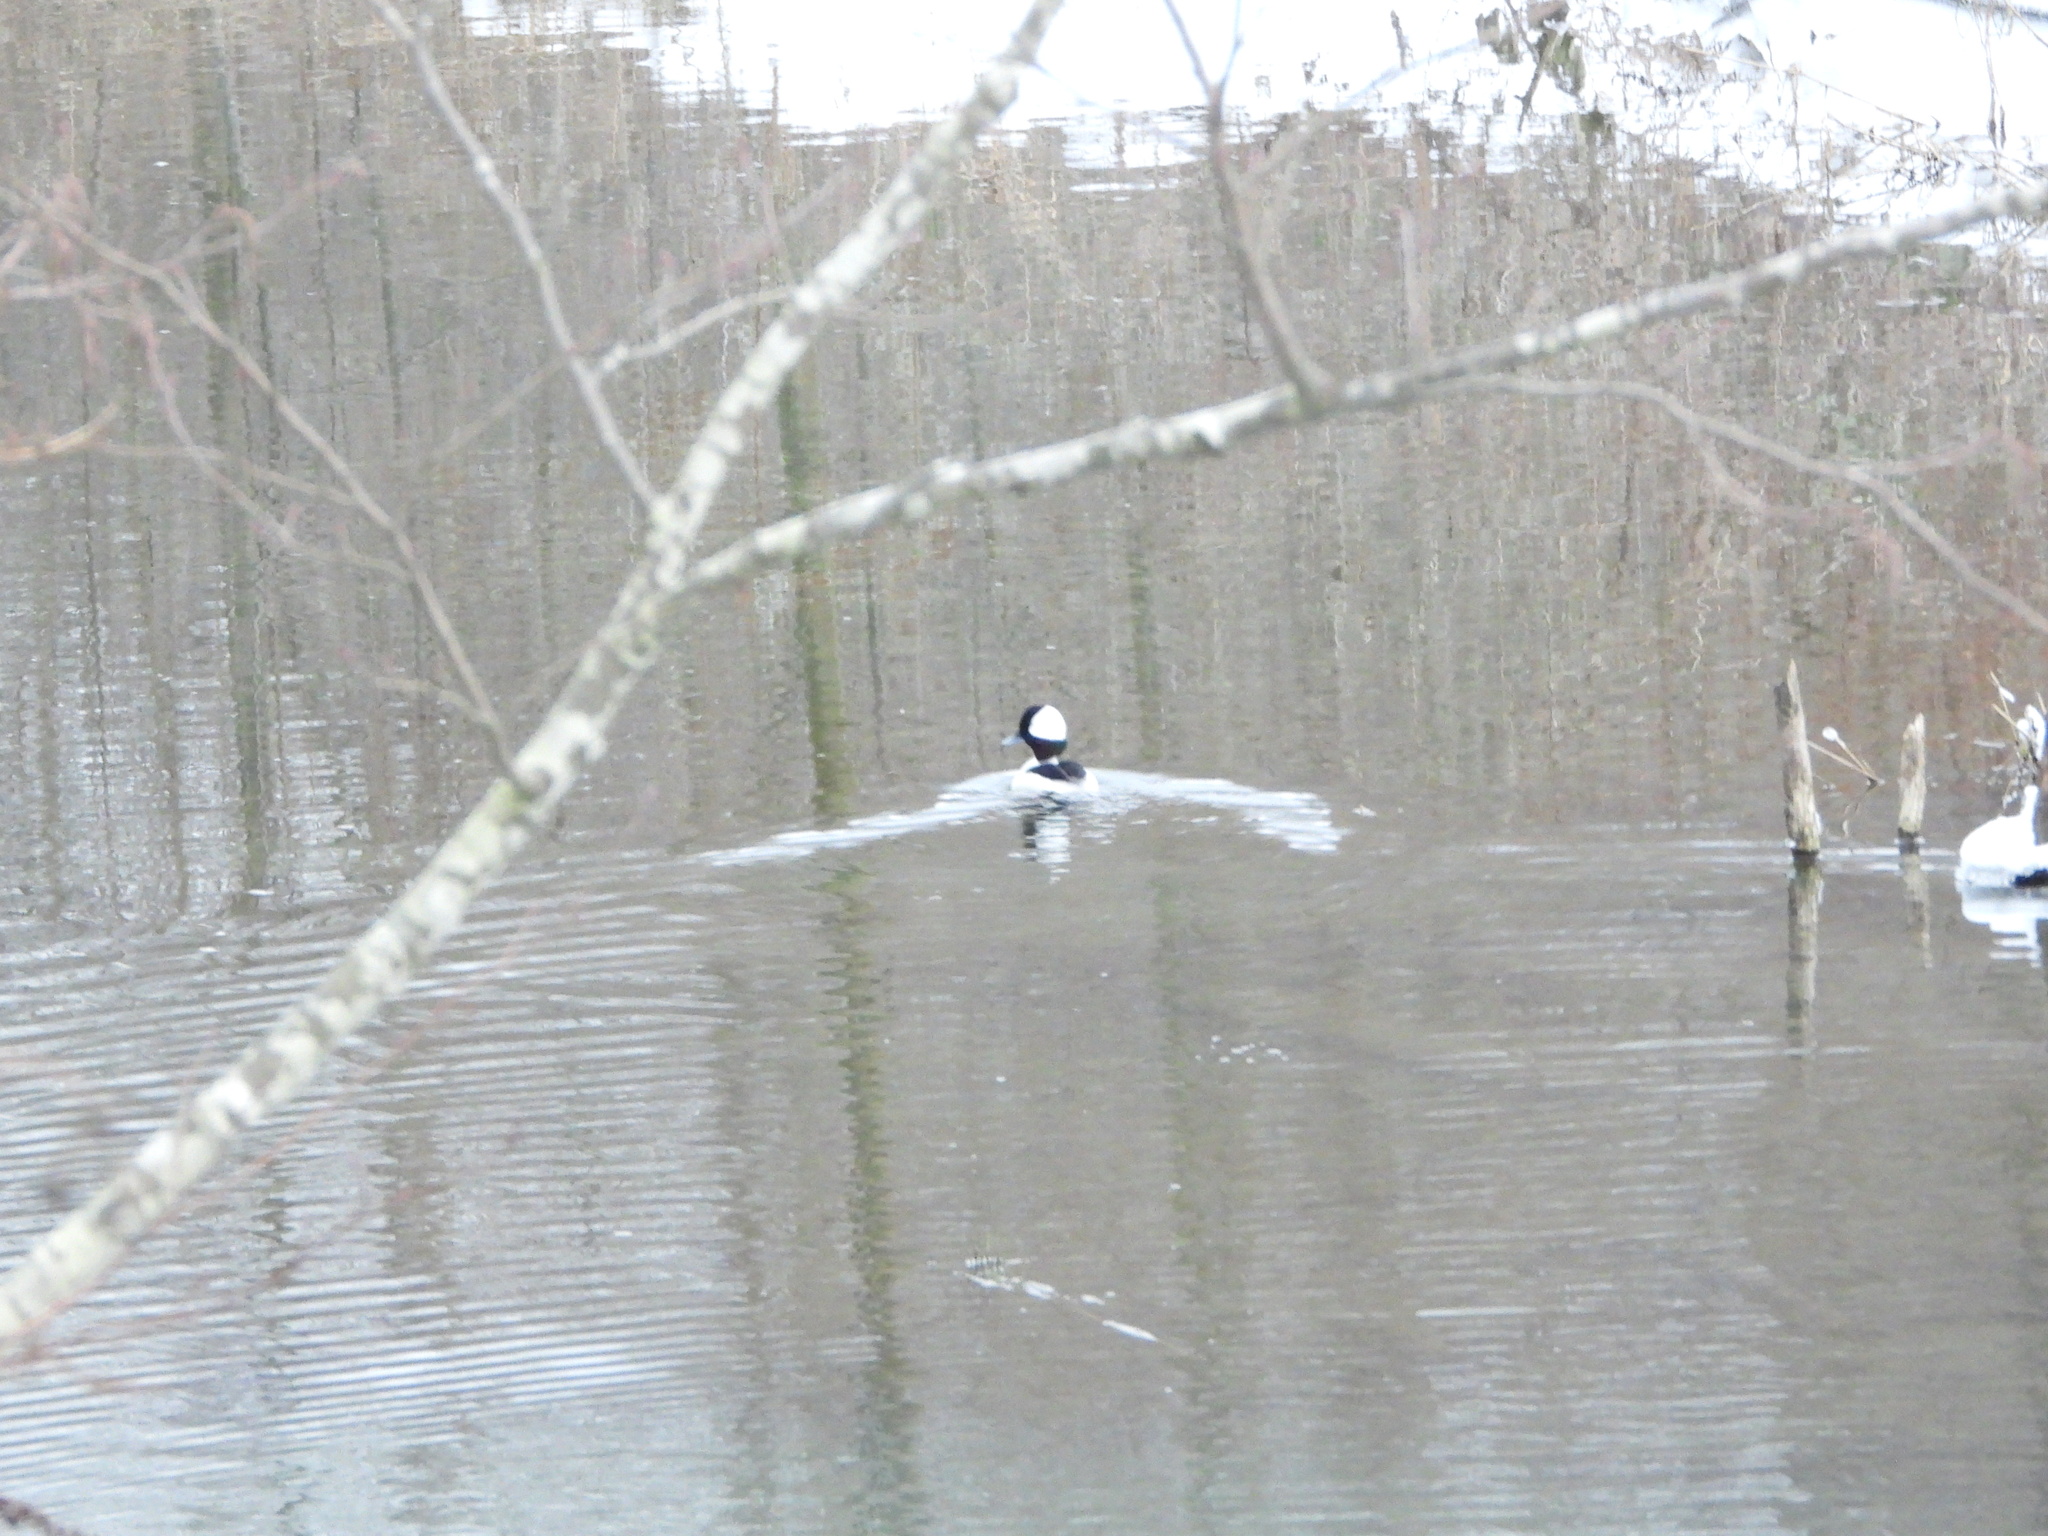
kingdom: Animalia
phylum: Chordata
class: Aves
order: Anseriformes
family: Anatidae
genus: Bucephala
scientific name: Bucephala albeola
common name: Bufflehead
